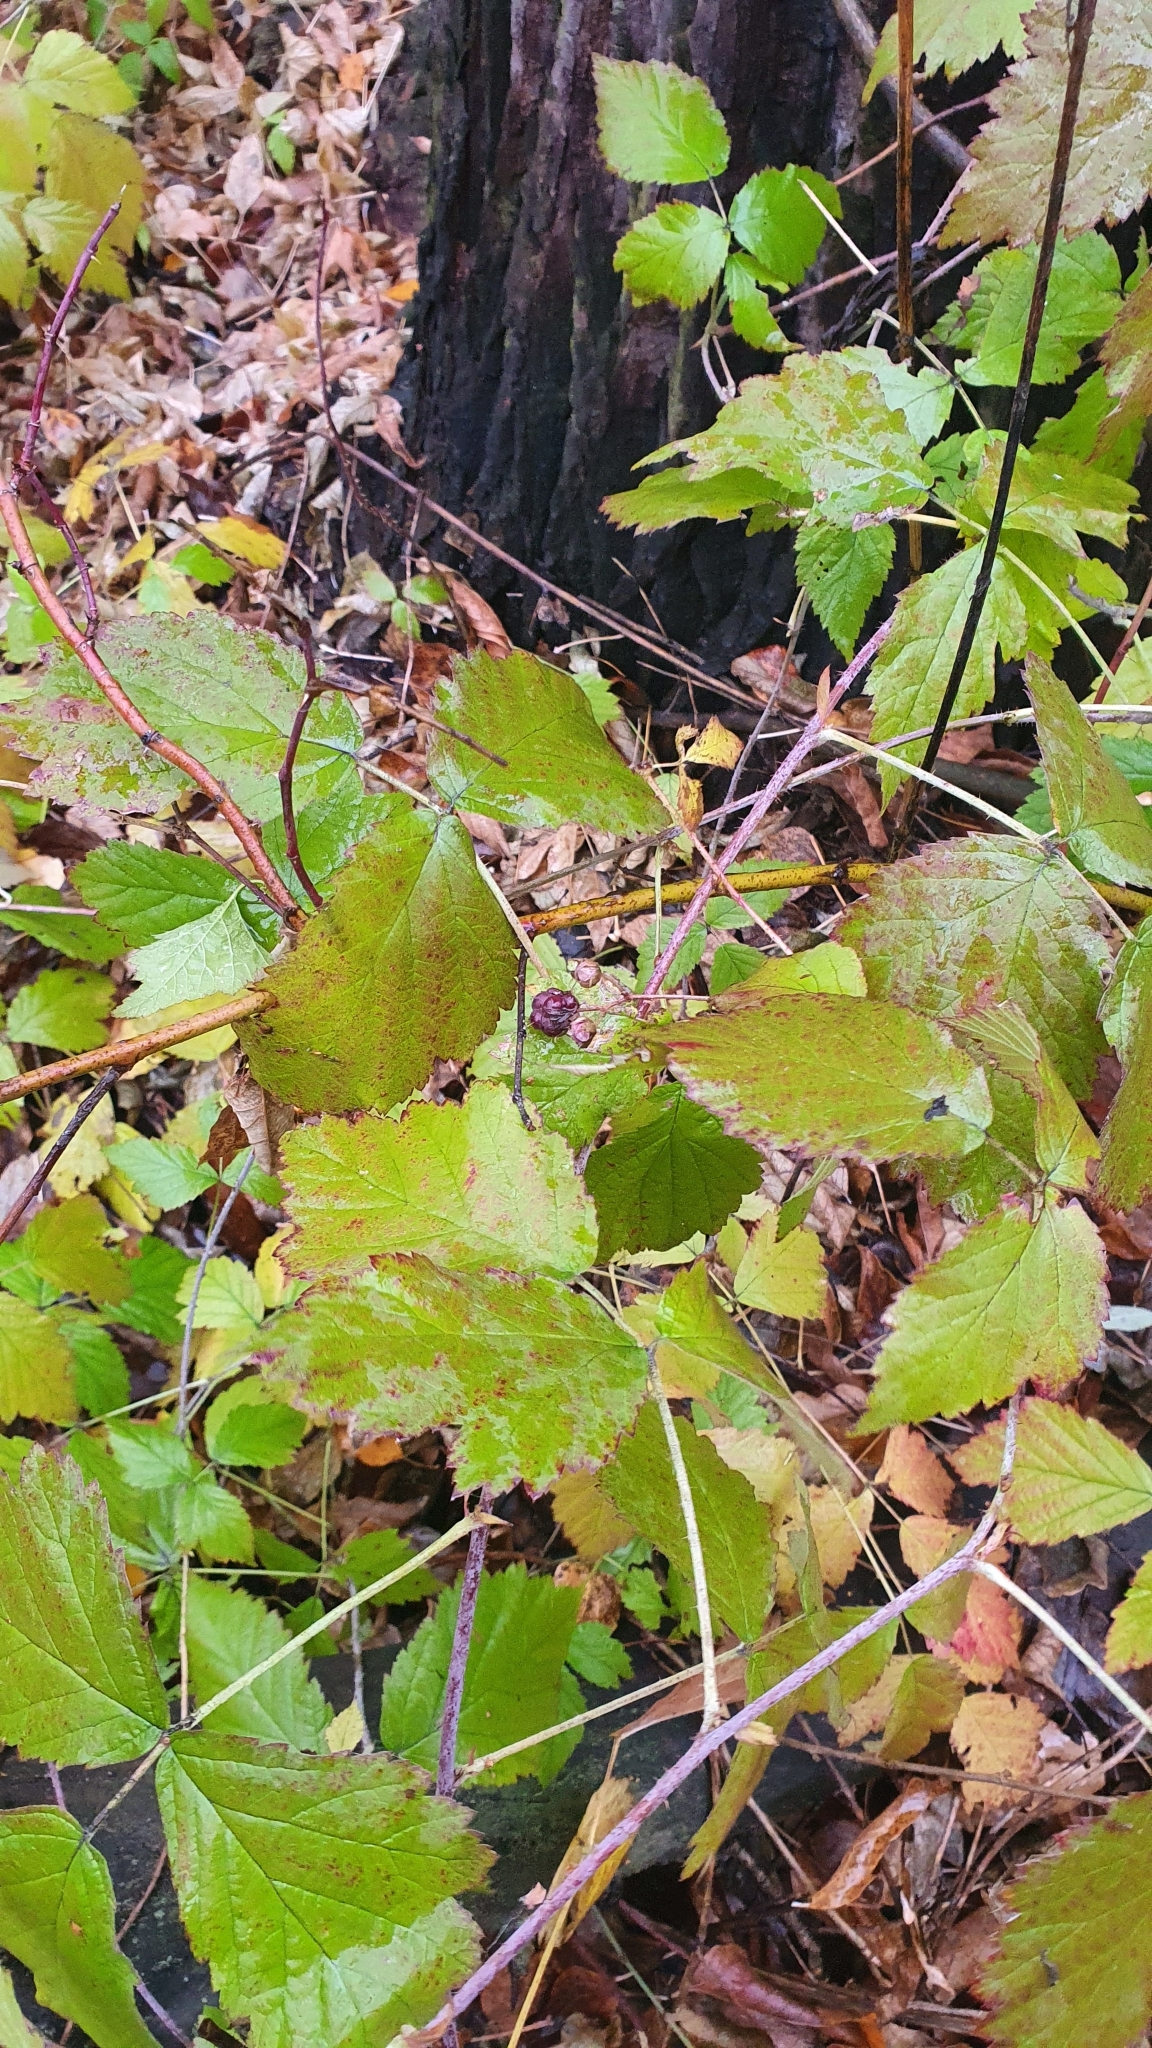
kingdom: Plantae
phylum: Tracheophyta
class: Magnoliopsida
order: Rosales
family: Rosaceae
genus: Rubus
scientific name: Rubus caesius
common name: Dewberry
